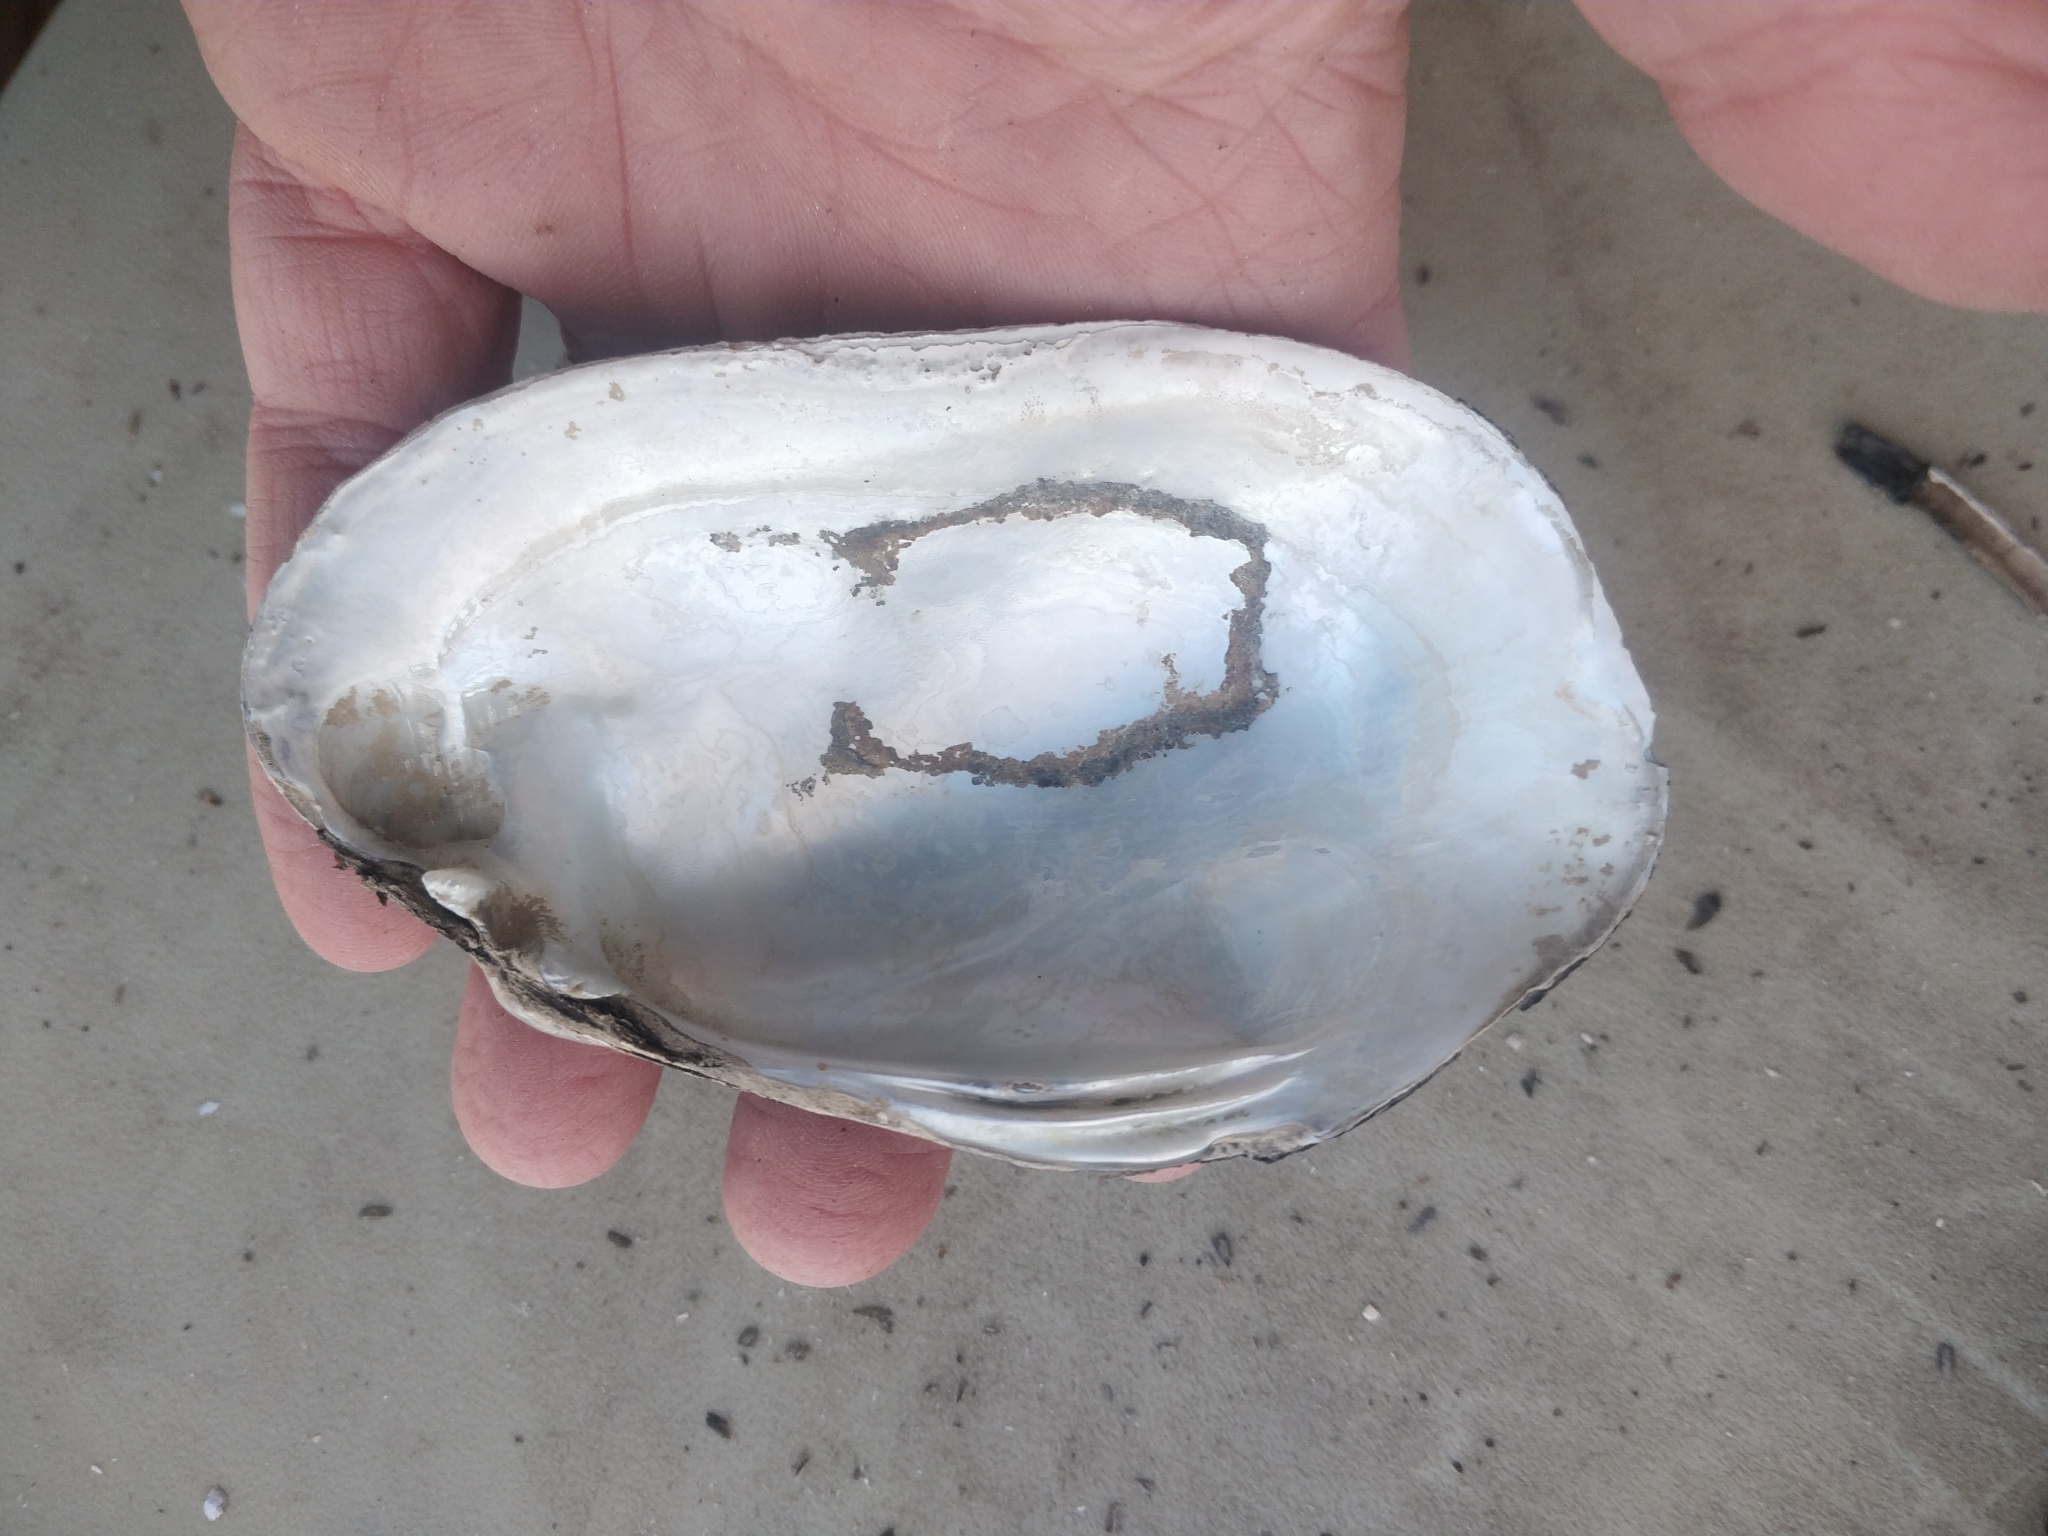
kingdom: Animalia
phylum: Mollusca
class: Bivalvia
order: Unionida
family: Unionidae
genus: Lampsilis
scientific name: Lampsilis siliquoidea
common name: Fatmucket
